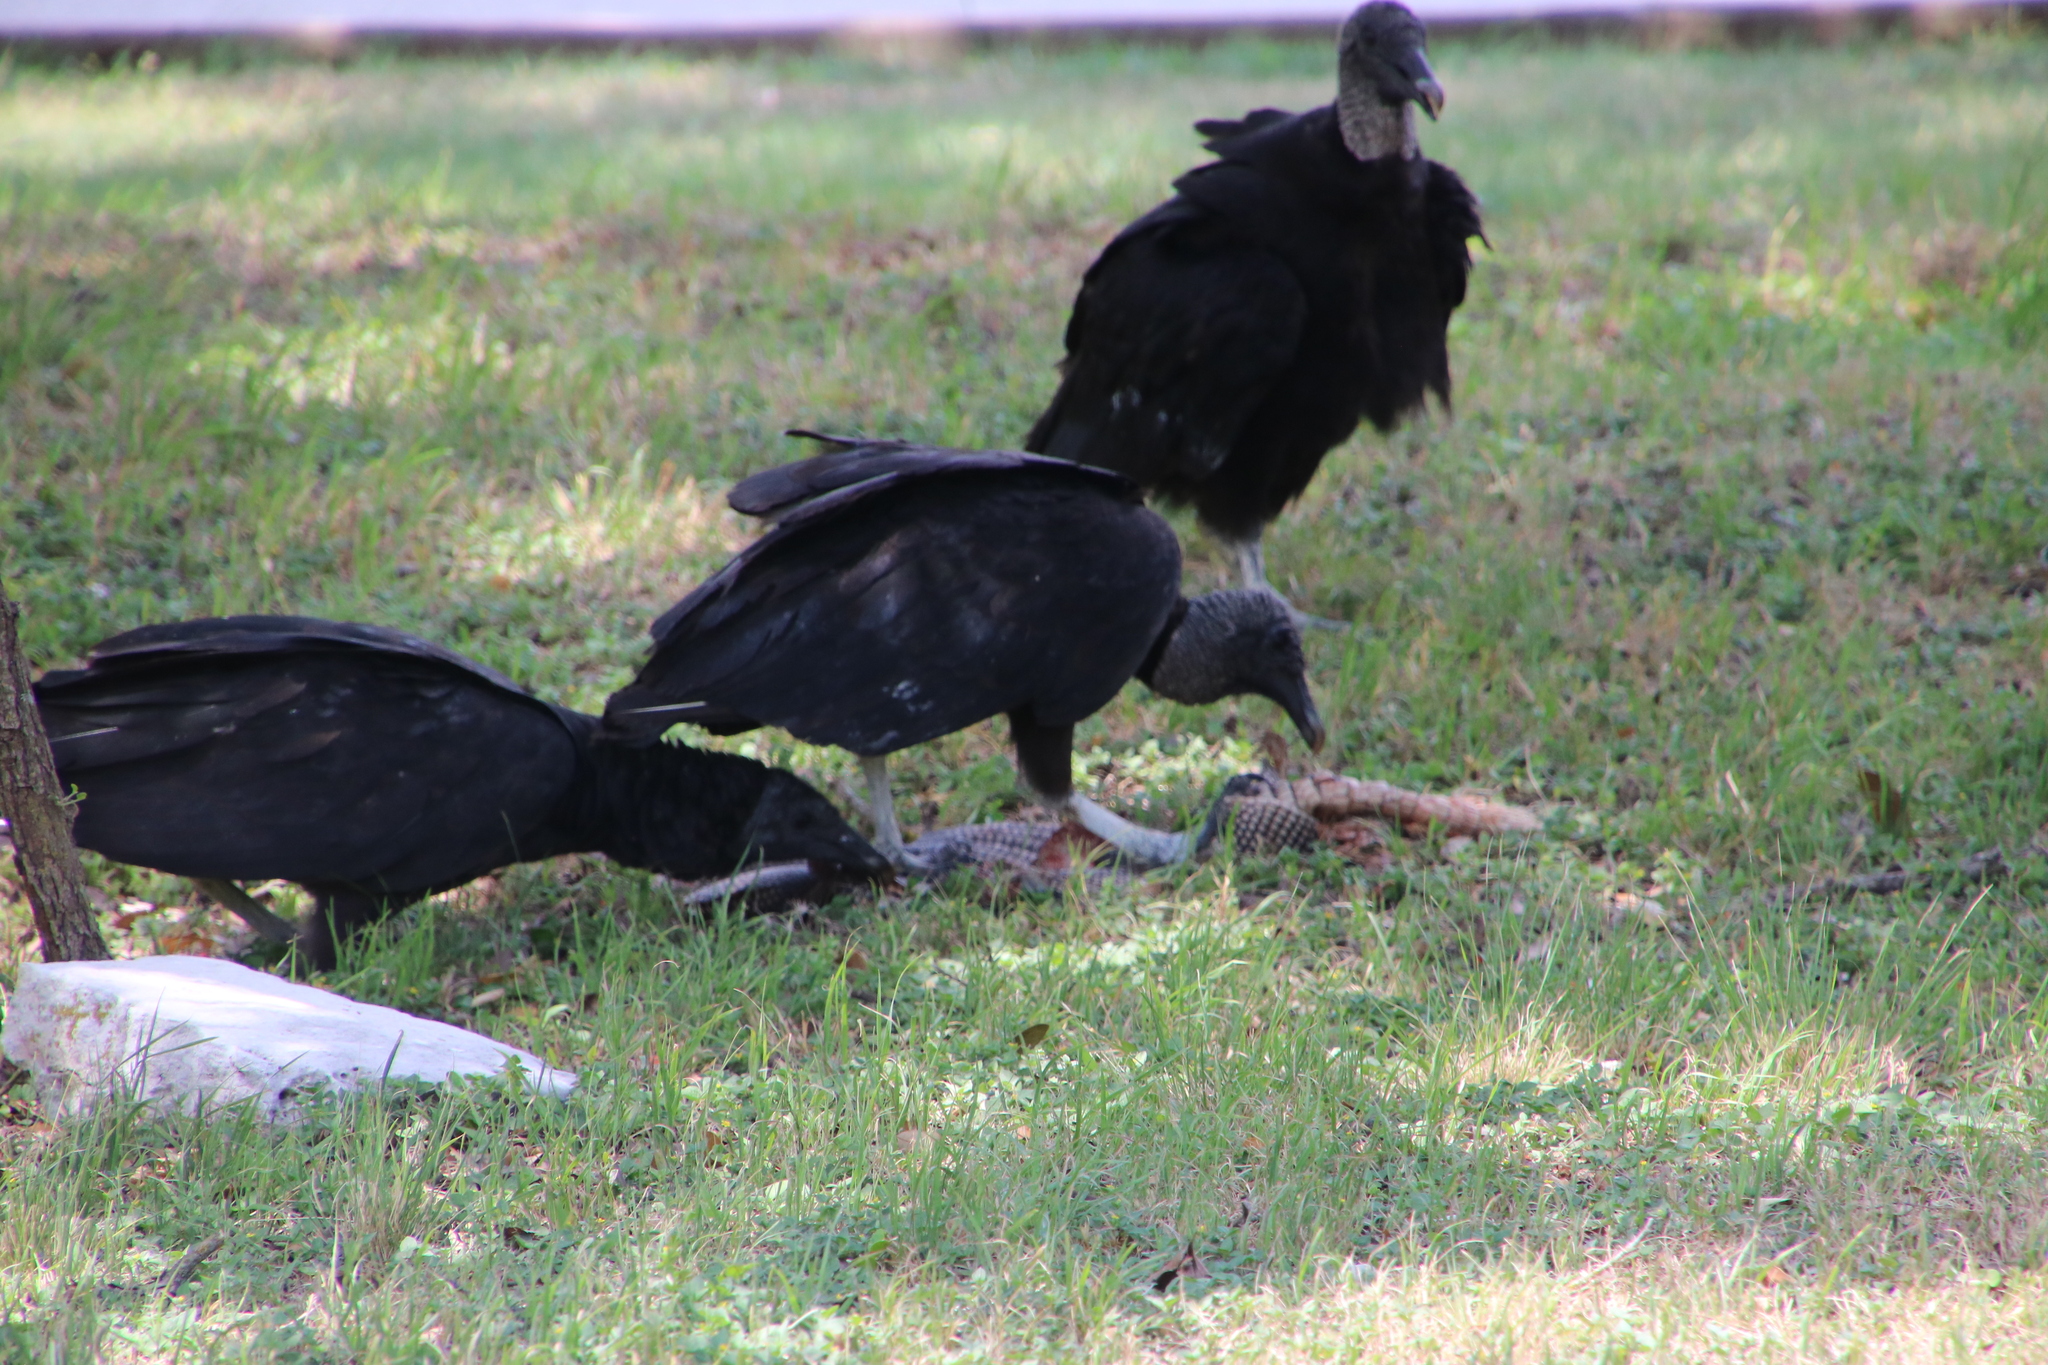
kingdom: Animalia
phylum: Chordata
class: Aves
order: Accipitriformes
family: Cathartidae
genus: Coragyps
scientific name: Coragyps atratus
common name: Black vulture
